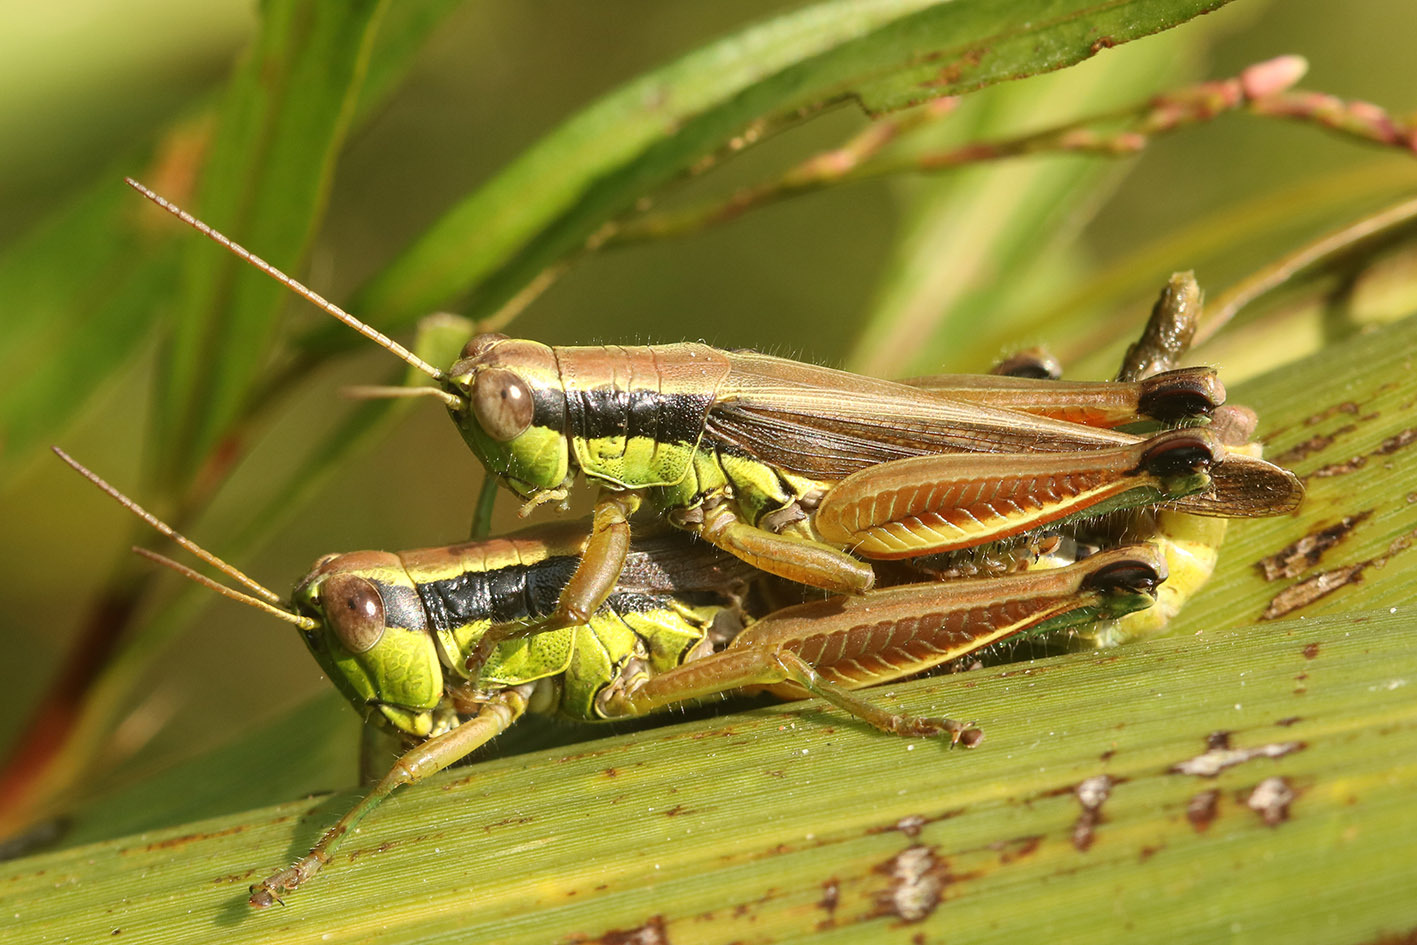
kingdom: Animalia
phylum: Arthropoda
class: Insecta
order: Orthoptera
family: Acrididae
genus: Scotussa
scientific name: Scotussa impudica
